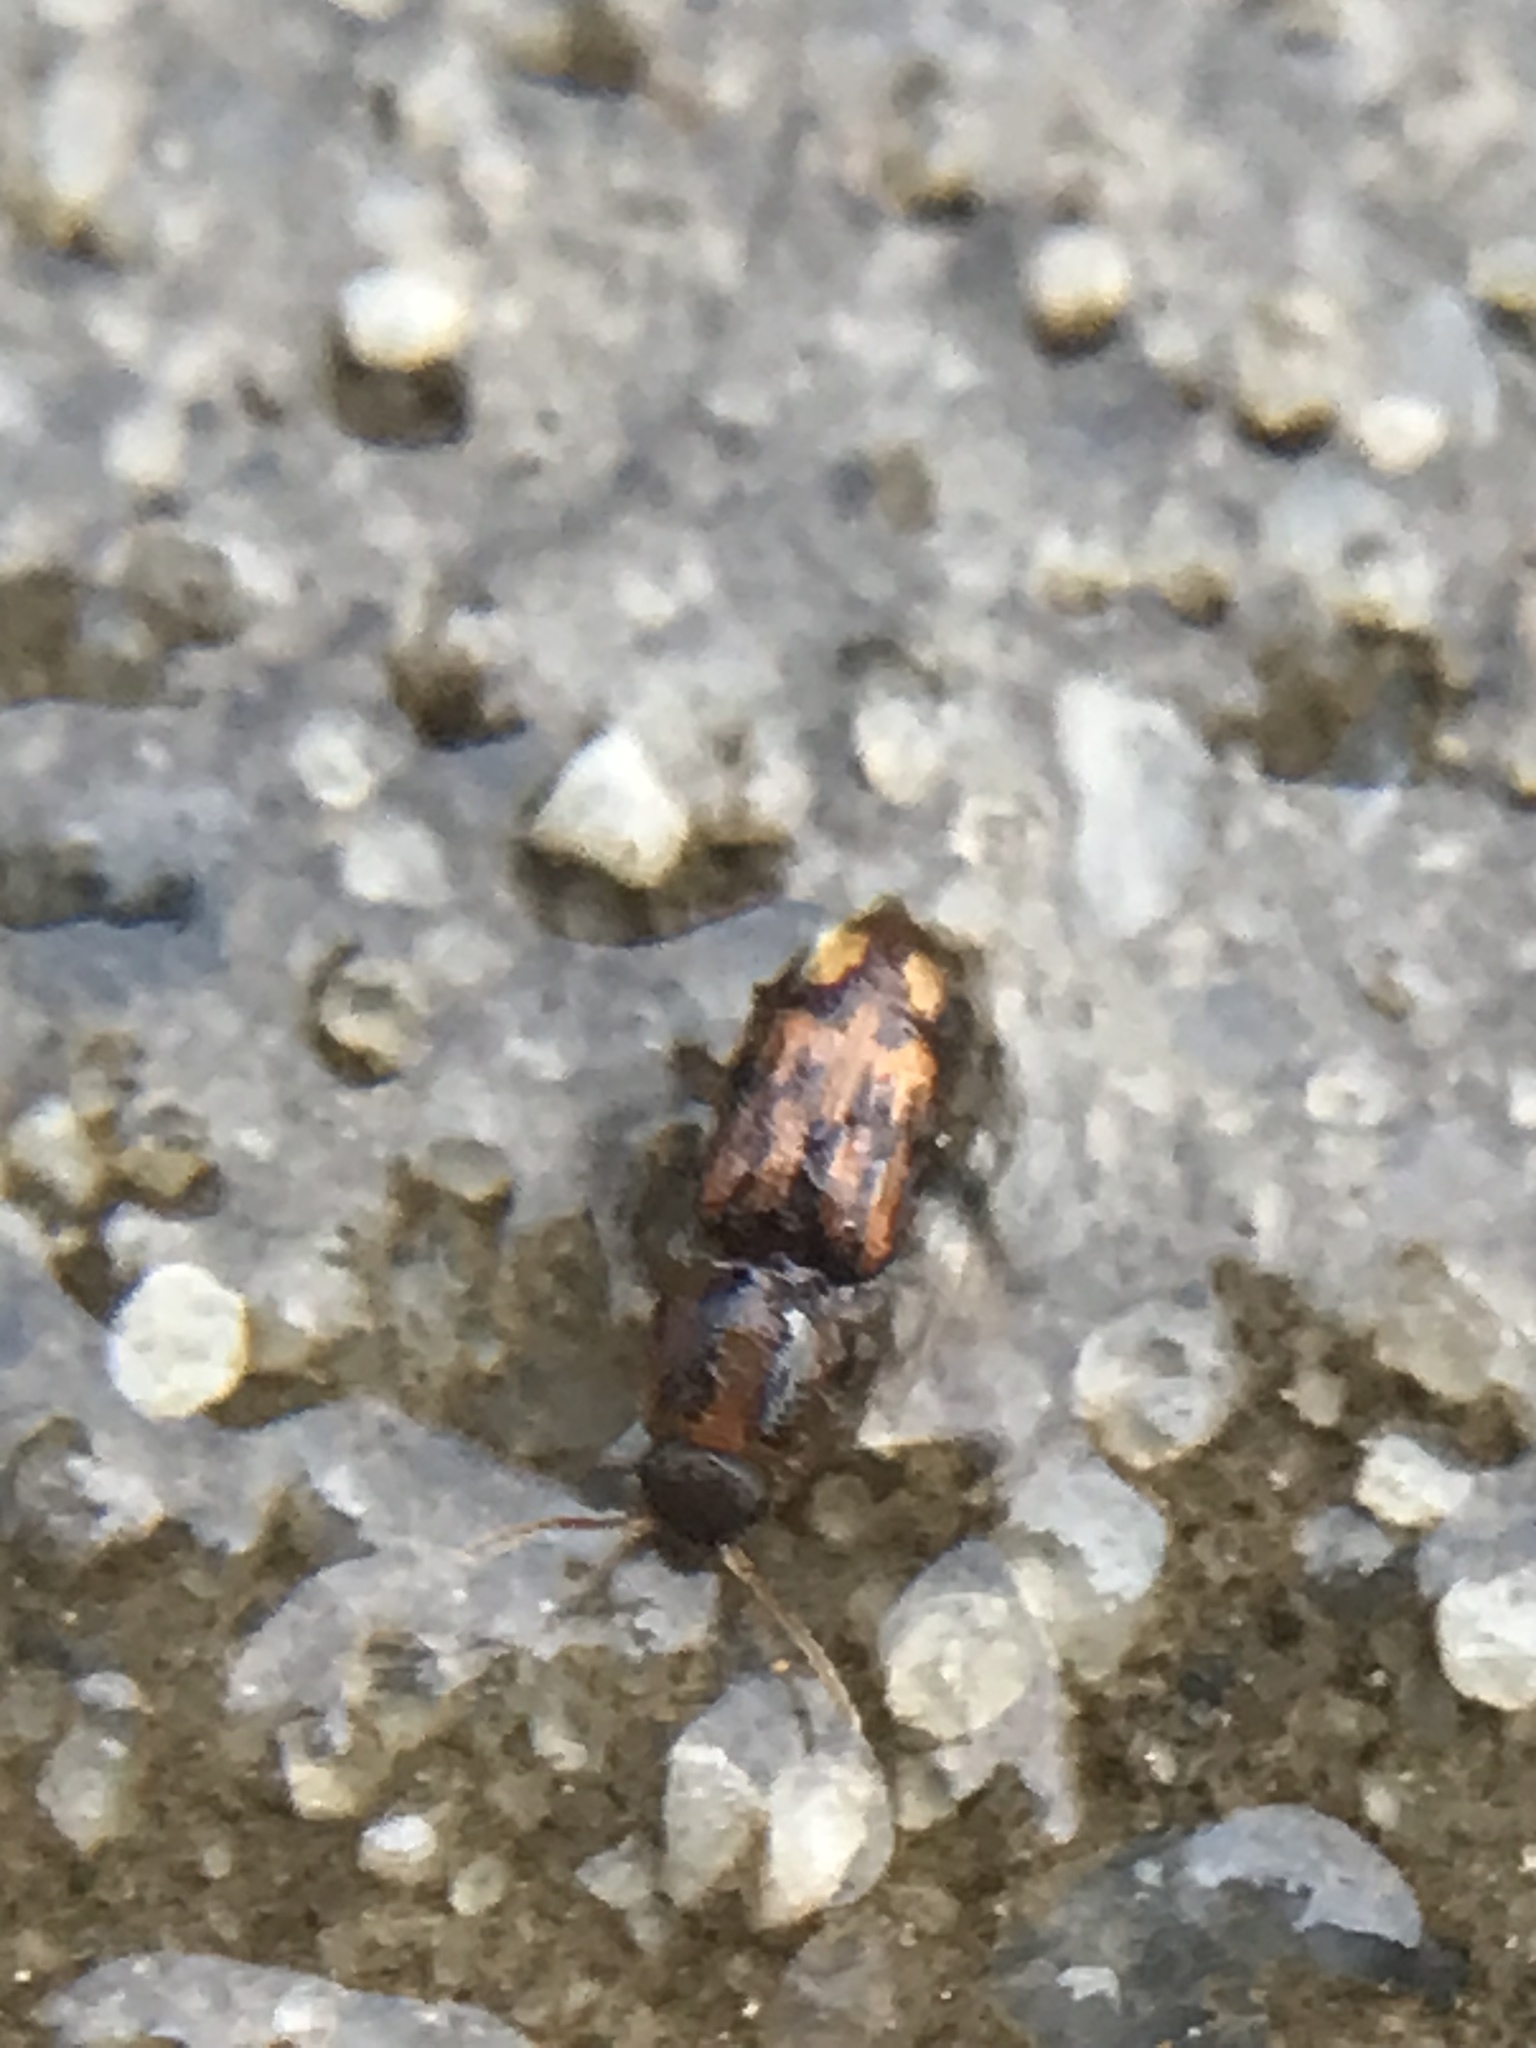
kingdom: Animalia
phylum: Arthropoda
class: Insecta
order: Coleoptera
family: Elateridae
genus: Monocrepidius
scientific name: Monocrepidius bellus
